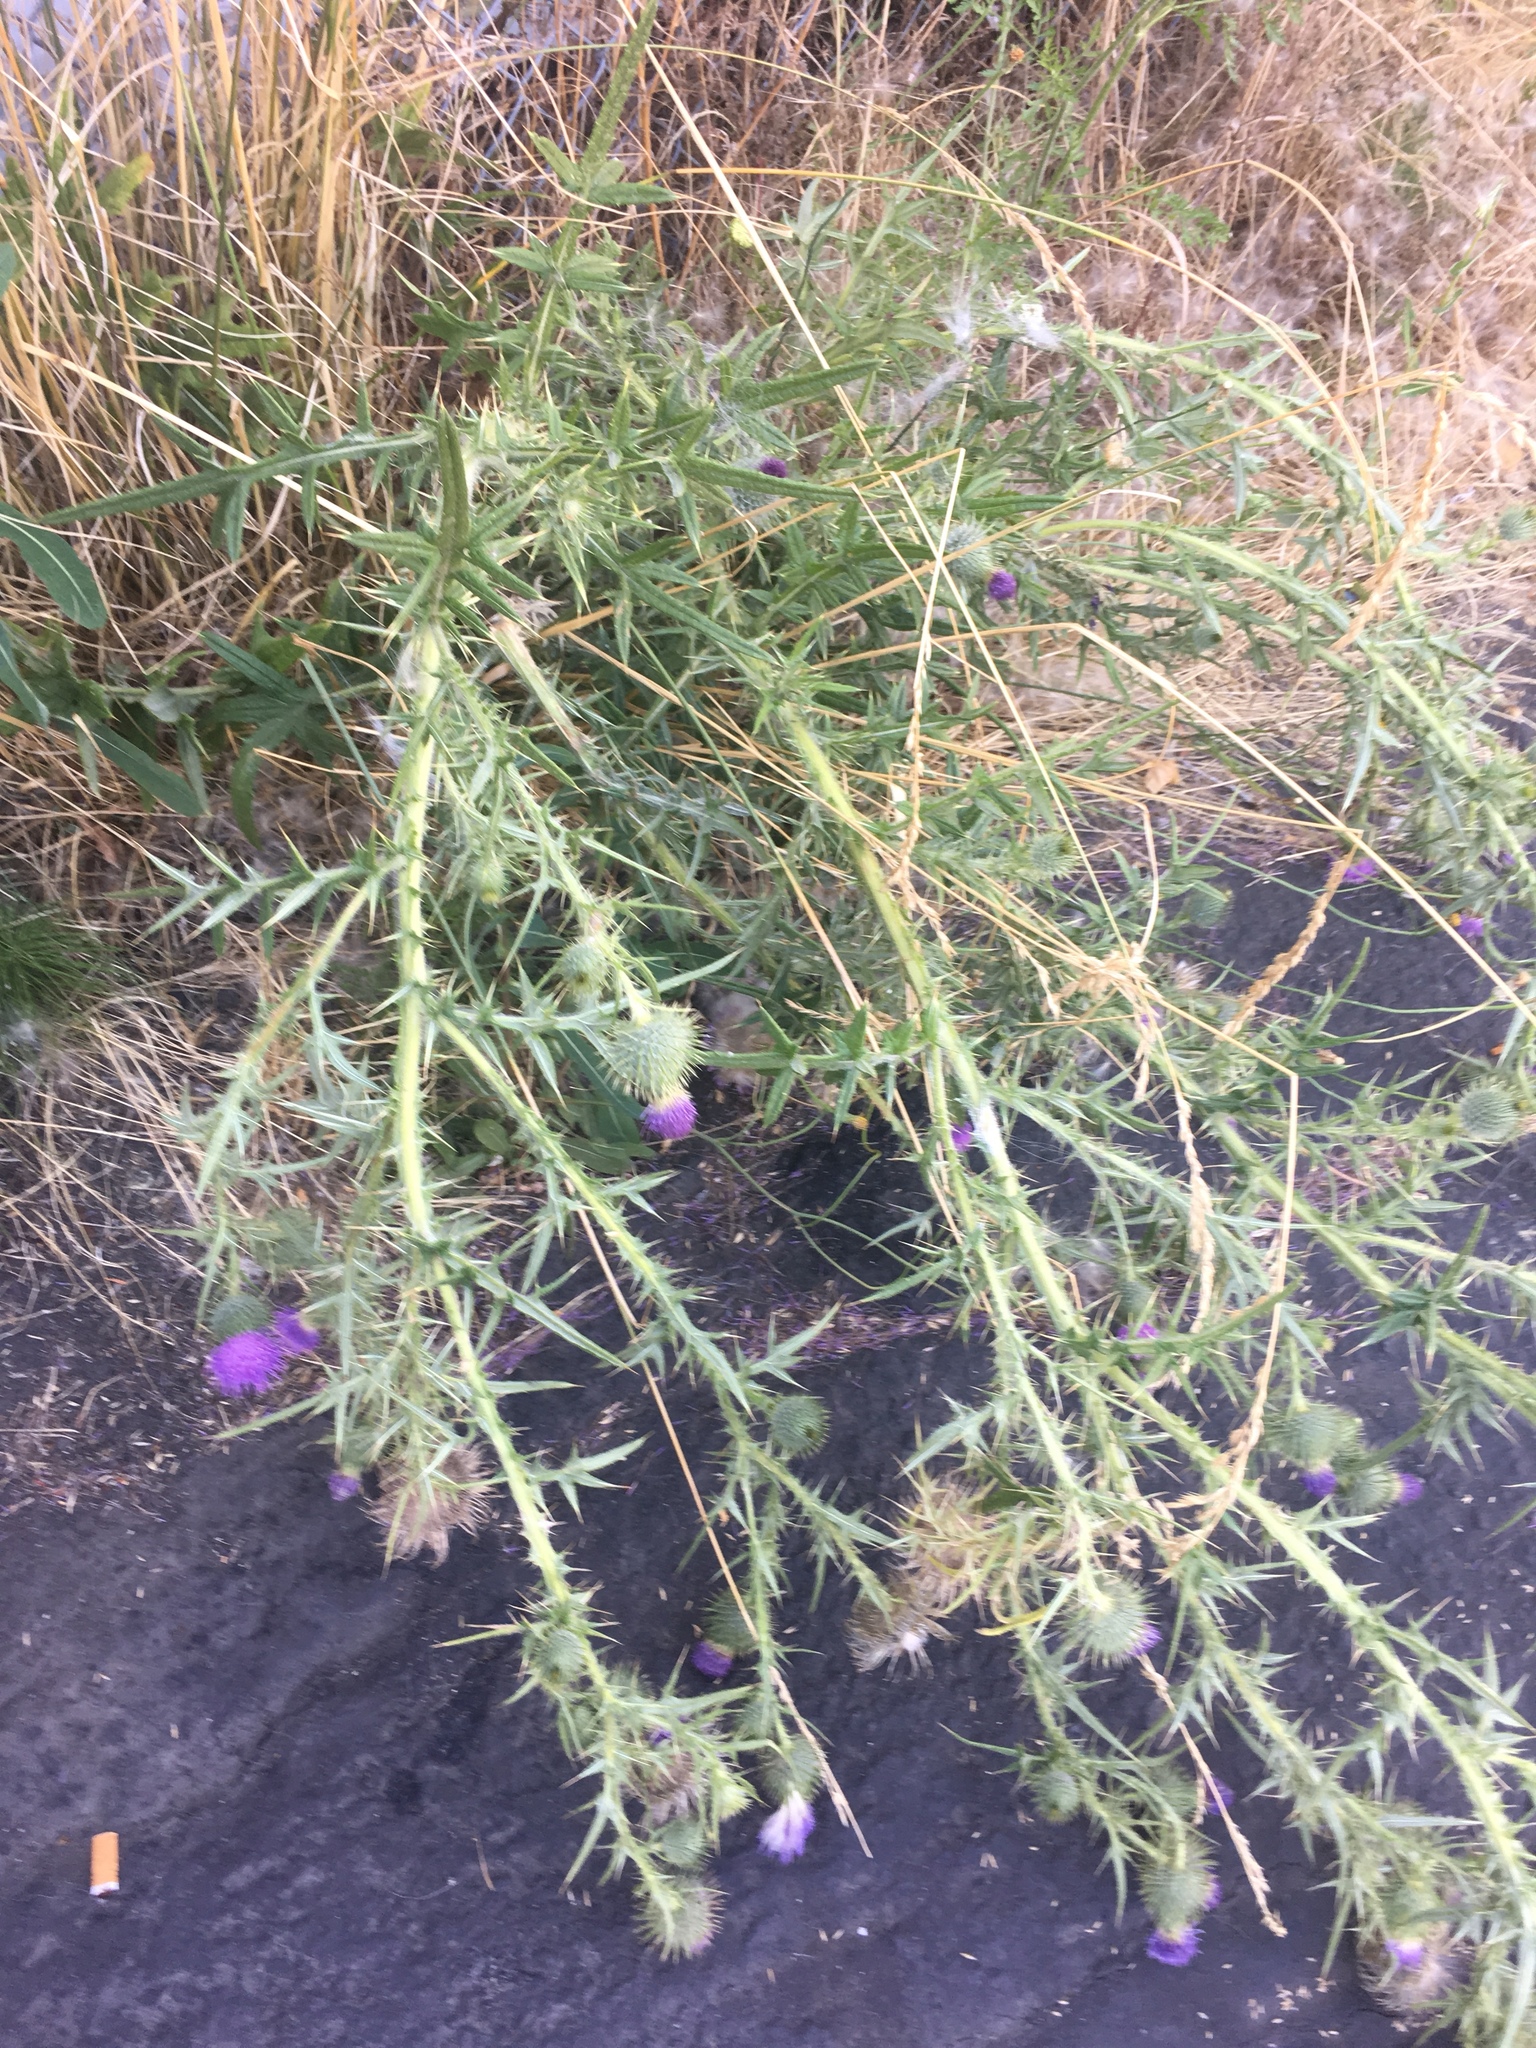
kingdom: Plantae
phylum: Tracheophyta
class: Magnoliopsida
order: Asterales
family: Asteraceae
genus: Cirsium
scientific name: Cirsium vulgare
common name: Bull thistle
